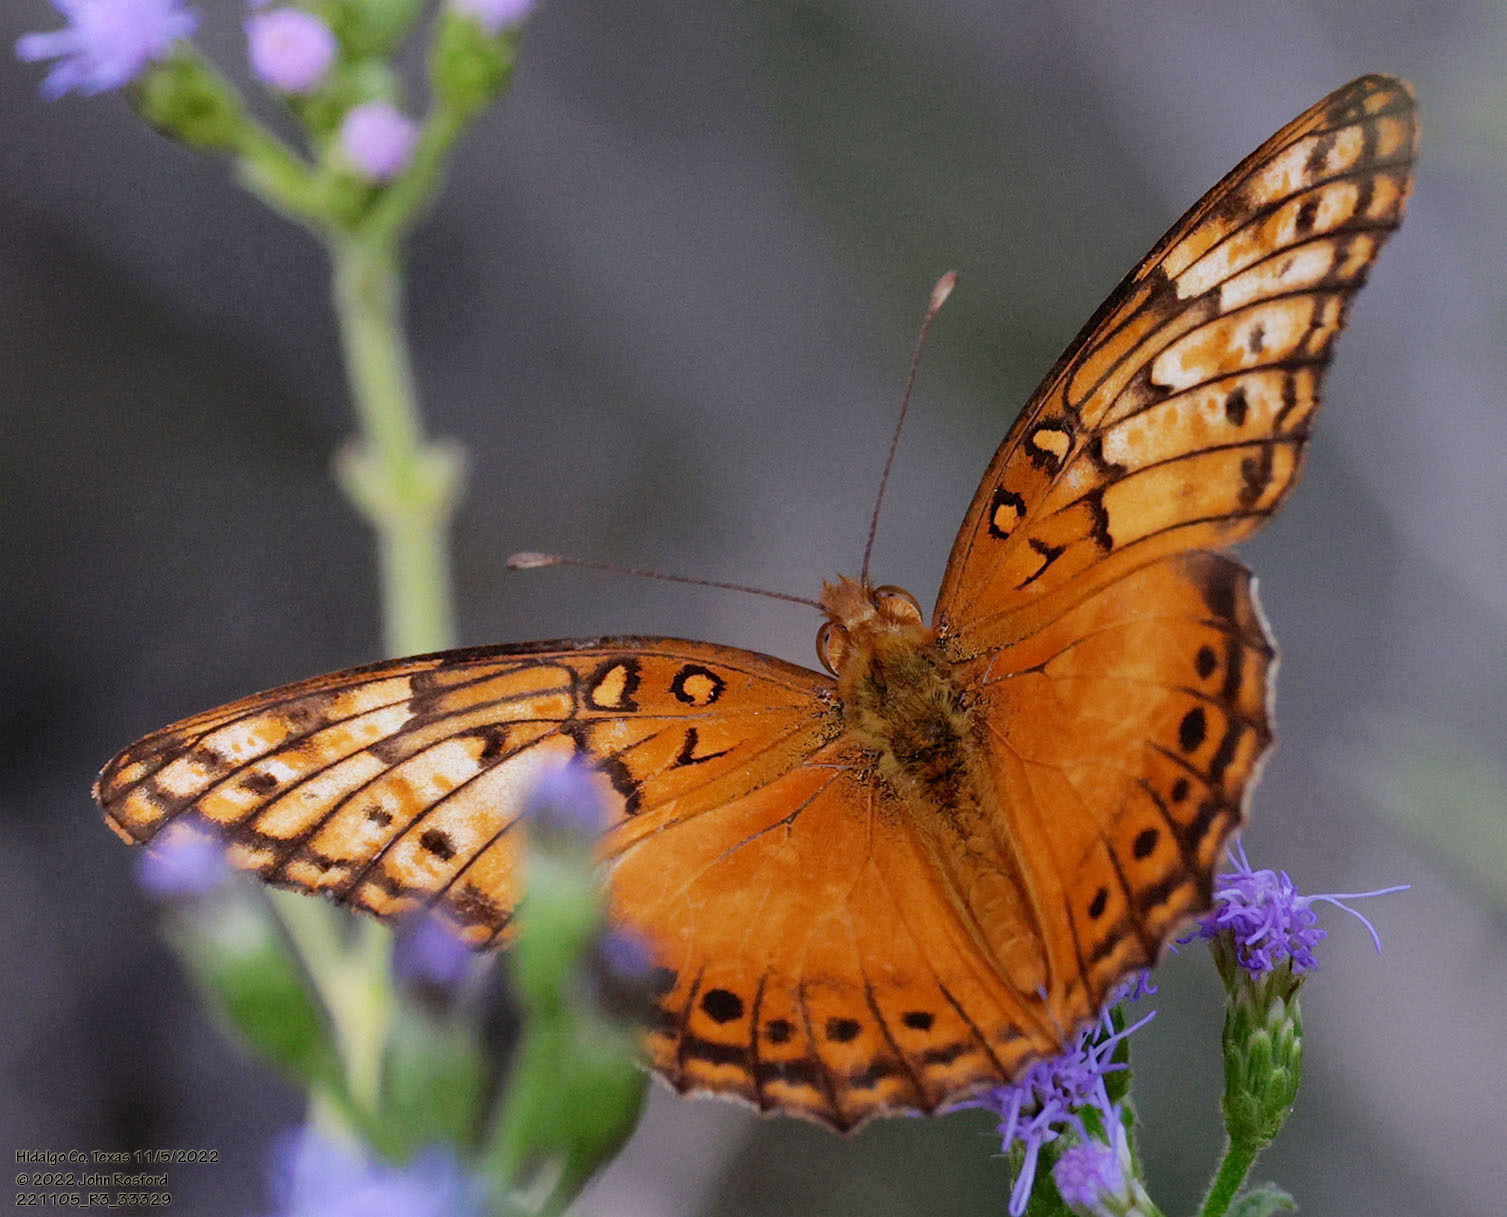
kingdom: Animalia
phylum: Arthropoda
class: Insecta
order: Lepidoptera
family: Nymphalidae
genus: Euptoieta
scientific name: Euptoieta hegesia
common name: Mexican fritillary
